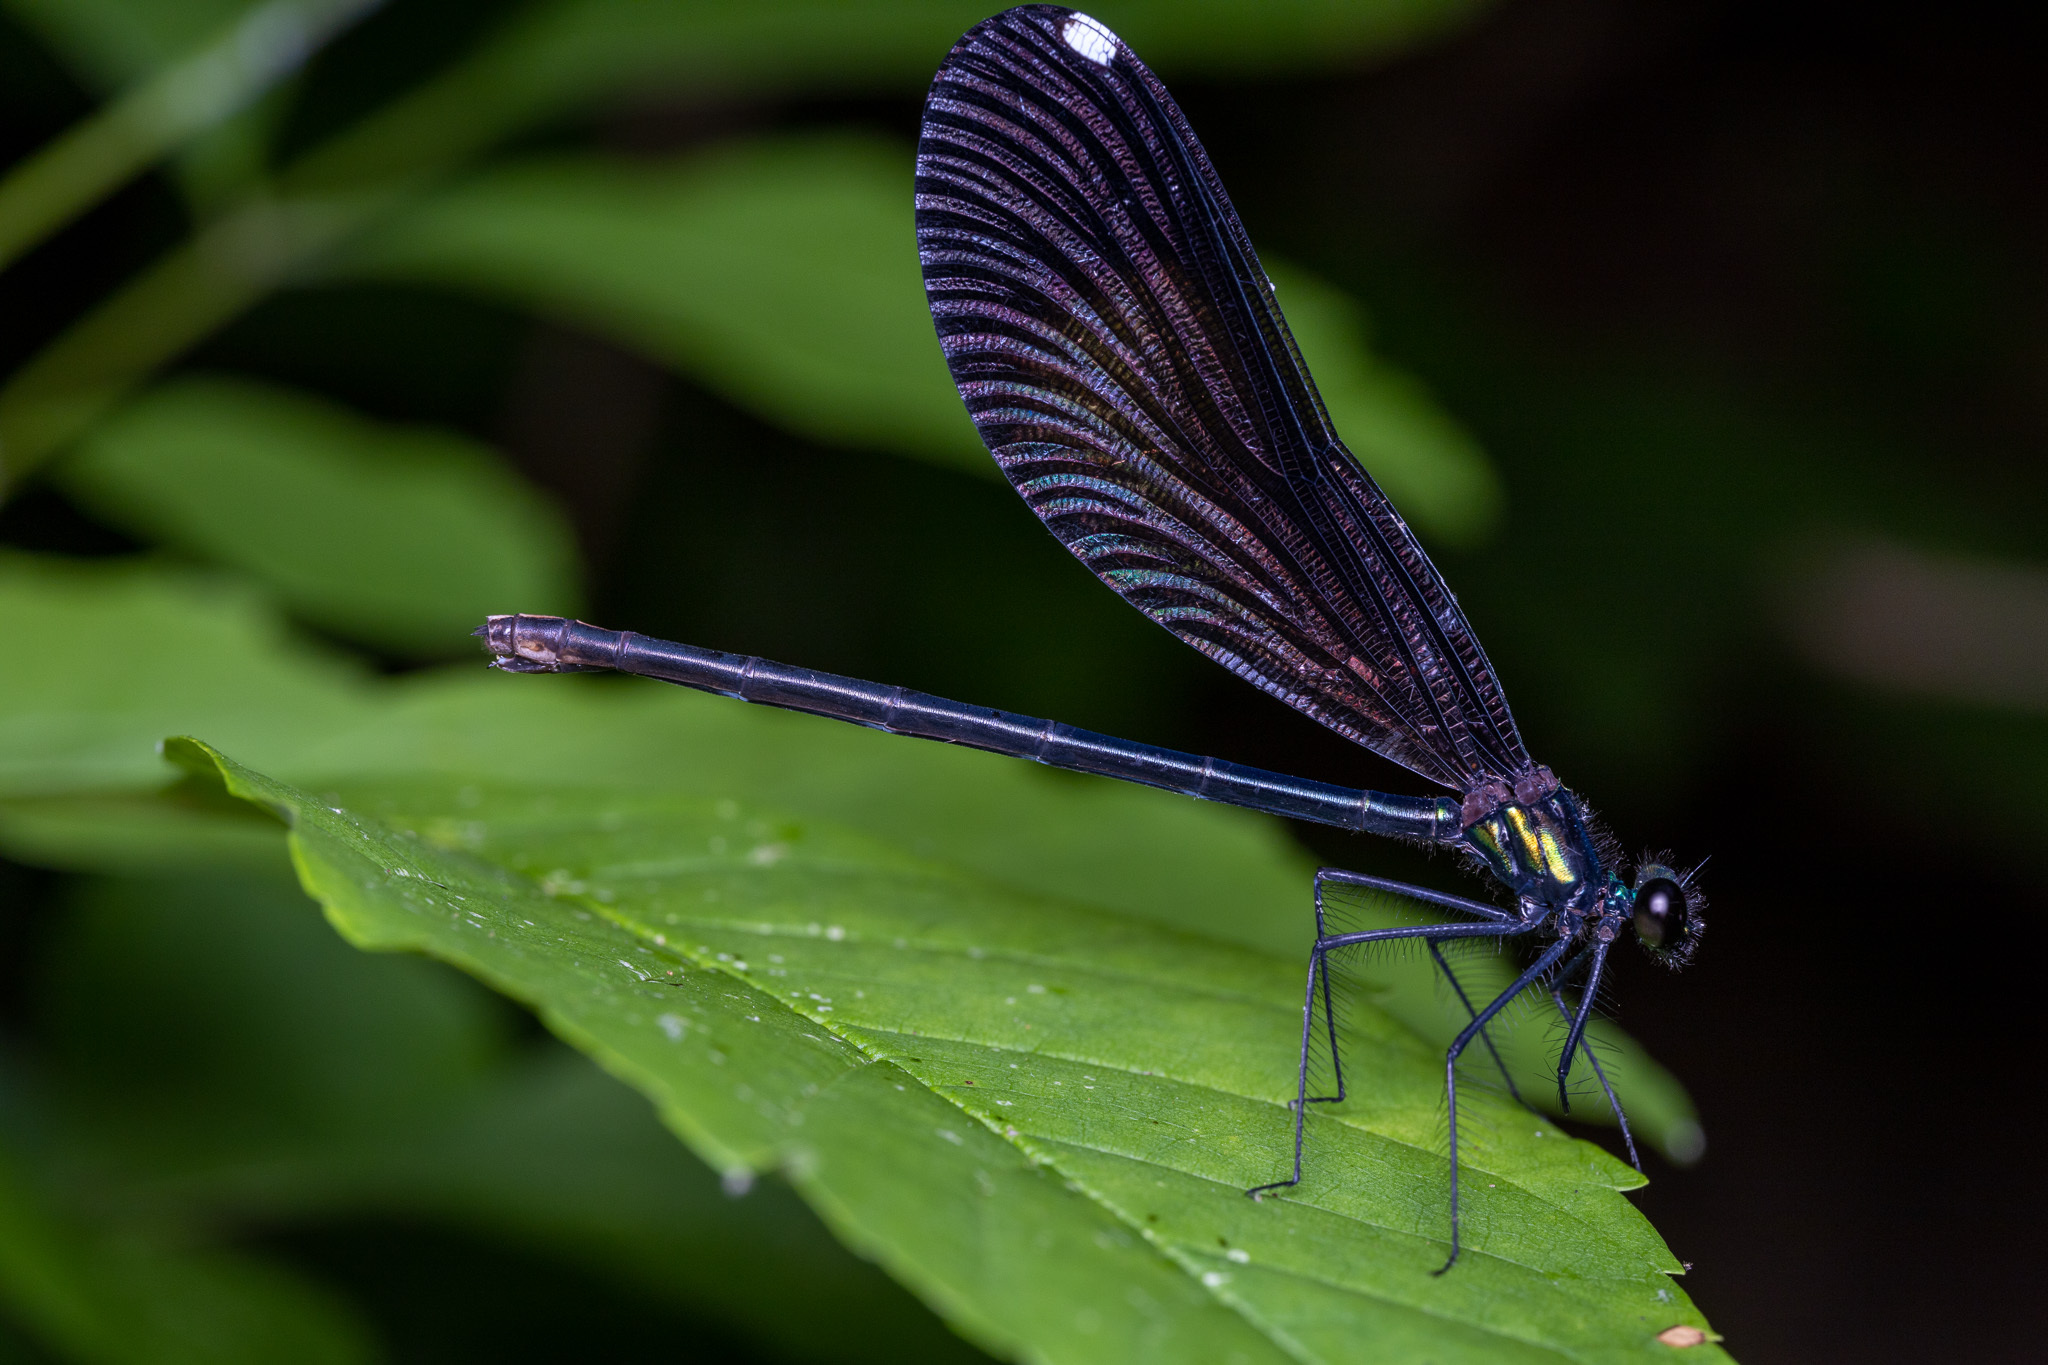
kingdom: Animalia
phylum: Arthropoda
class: Insecta
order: Odonata
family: Calopterygidae
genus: Calopteryx
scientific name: Calopteryx maculata
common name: Ebony jewelwing
